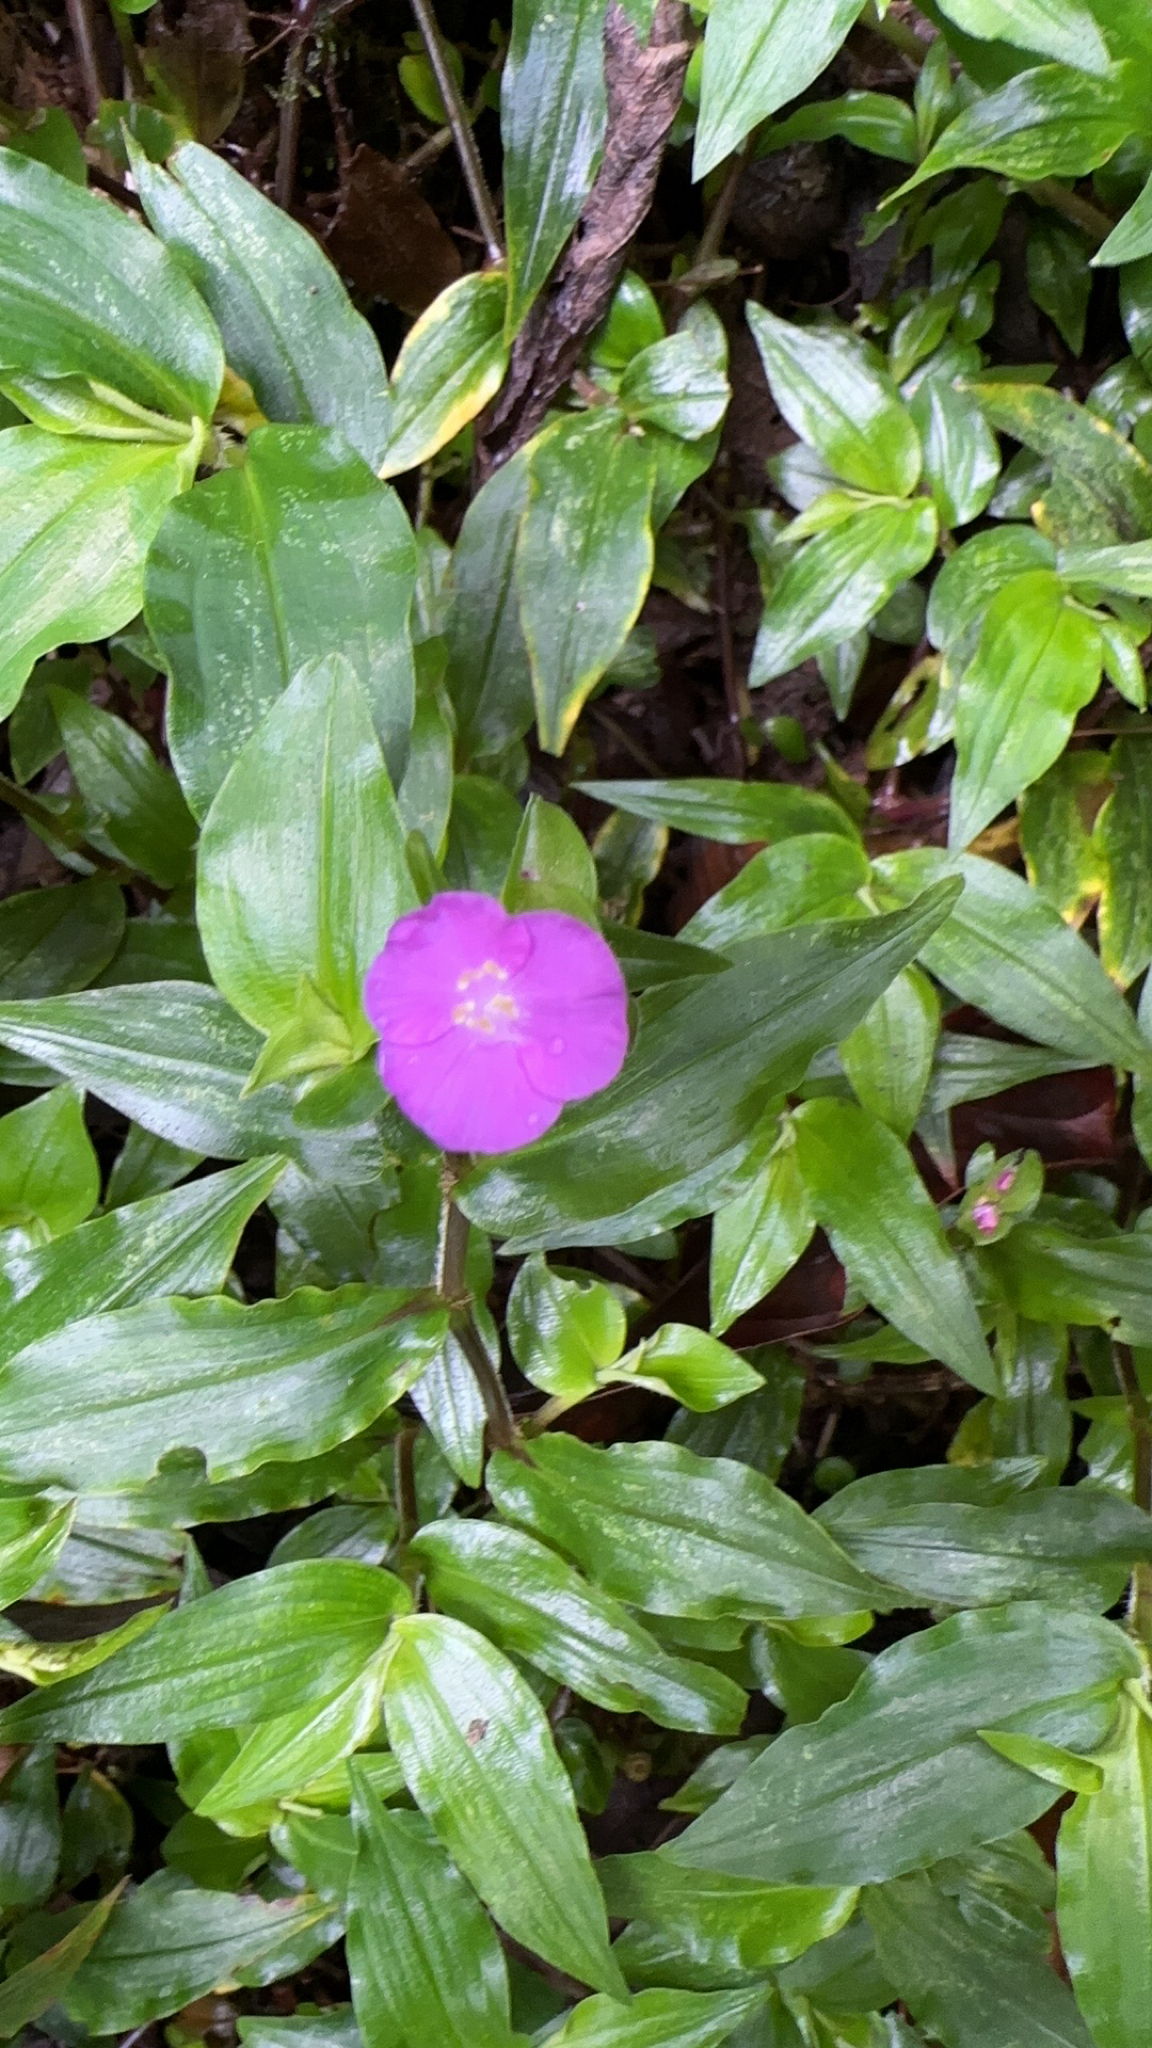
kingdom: Plantae
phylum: Tracheophyta
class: Liliopsida
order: Commelinales
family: Commelinaceae
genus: Tradescantia
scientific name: Tradescantia poelliae
